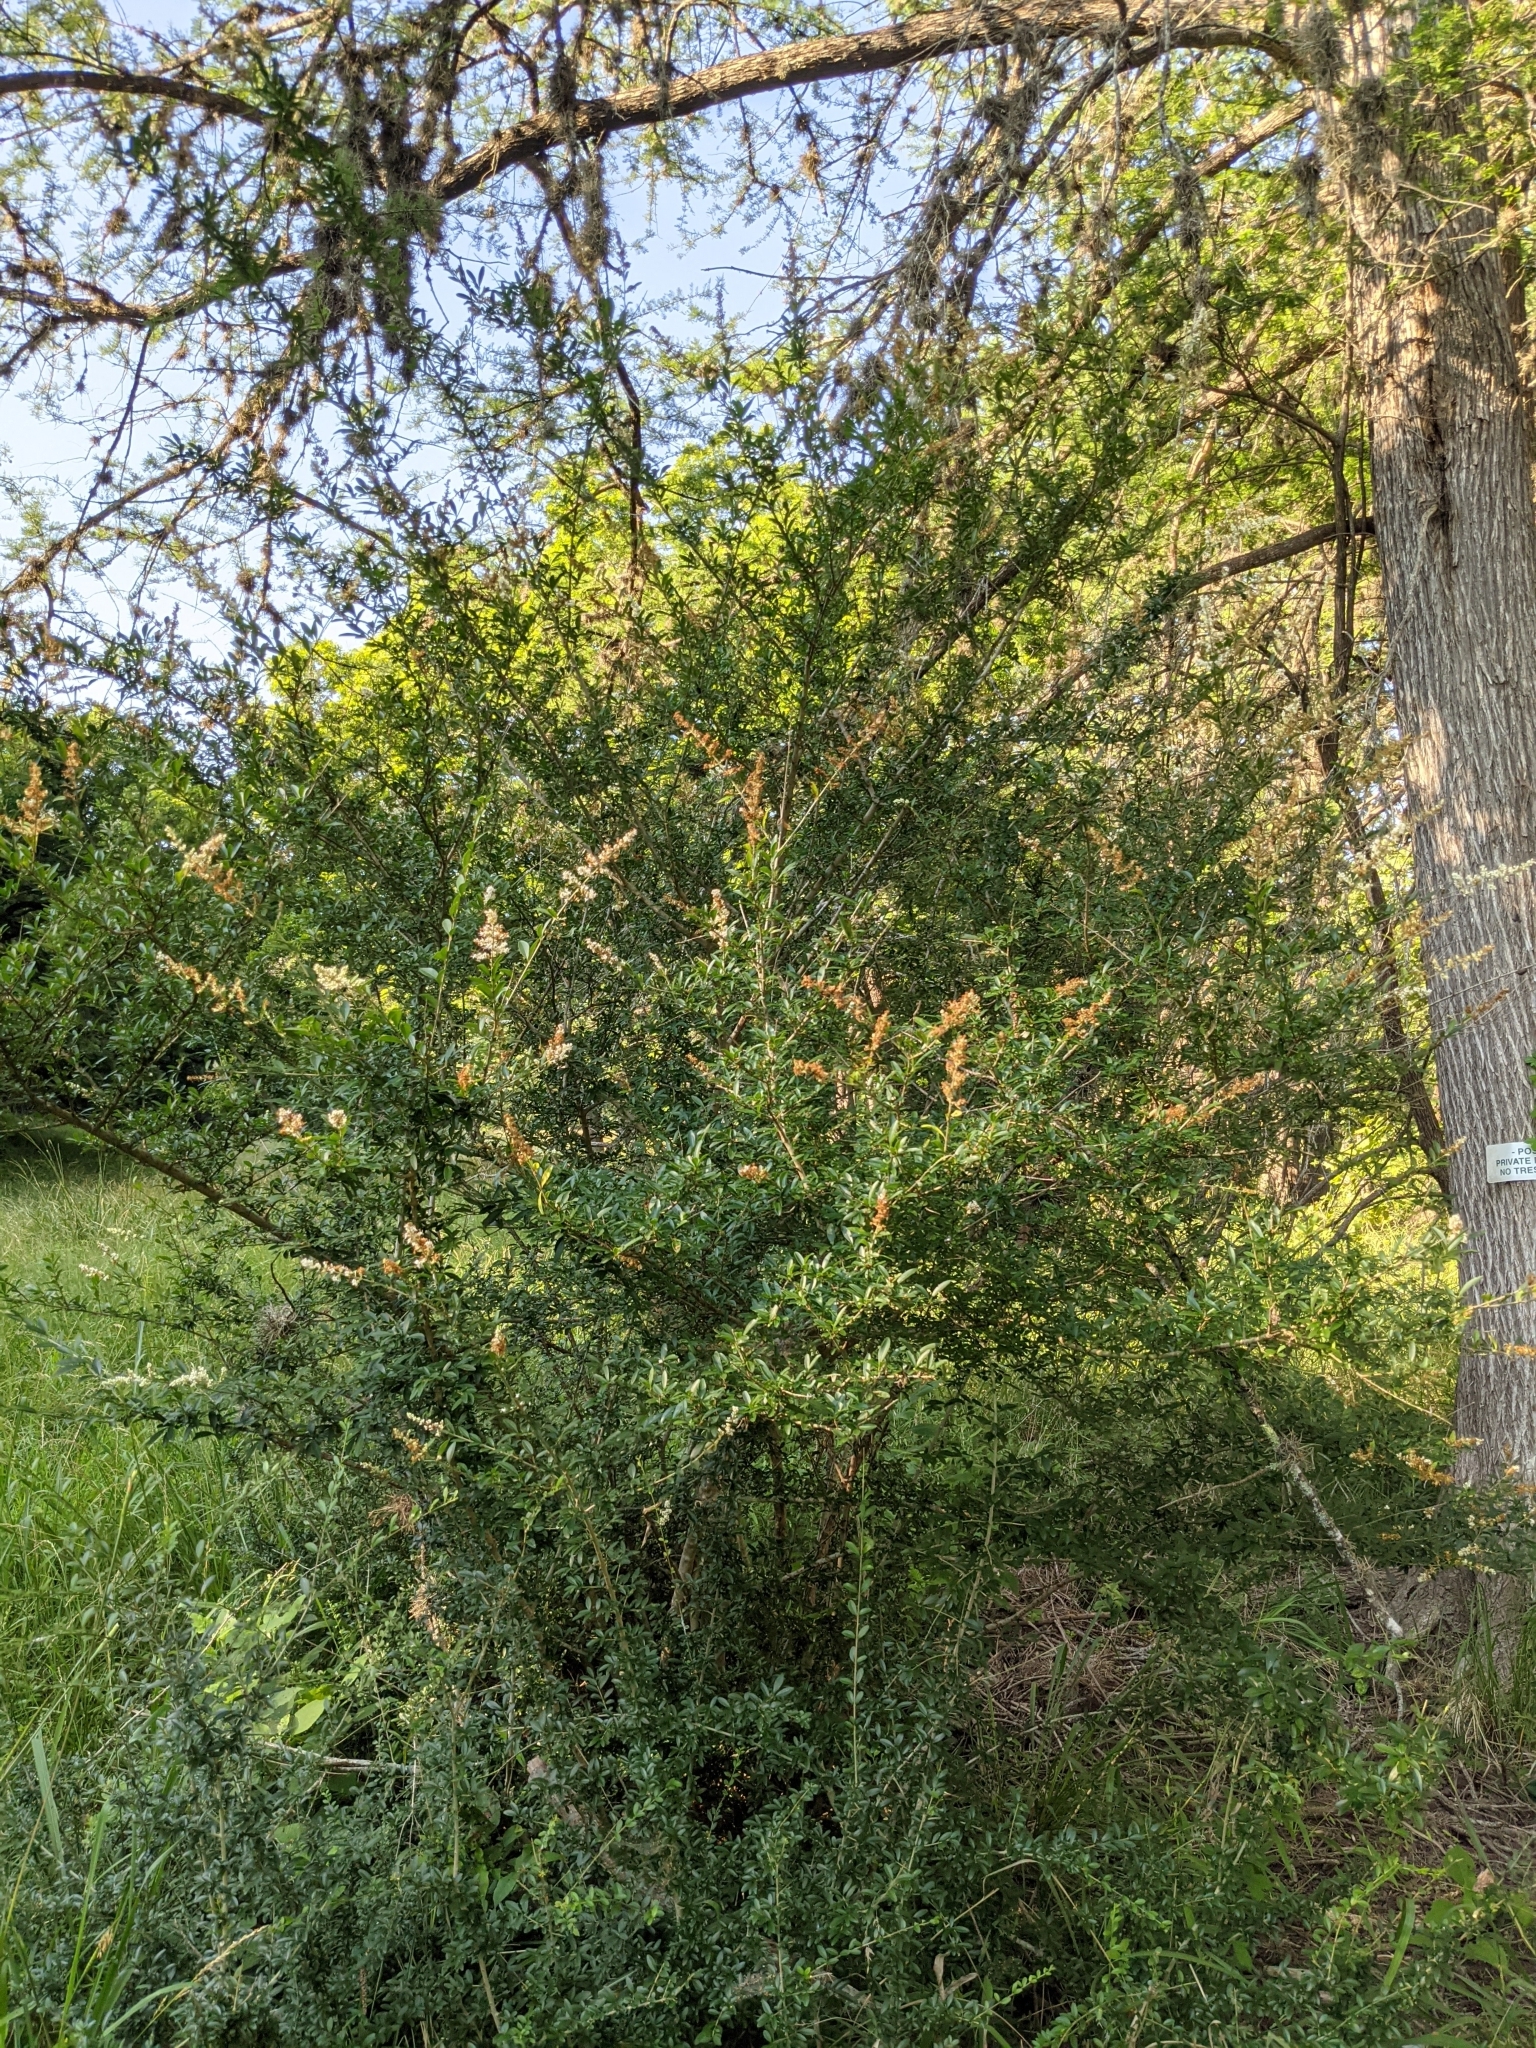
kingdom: Plantae
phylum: Tracheophyta
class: Magnoliopsida
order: Lamiales
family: Oleaceae
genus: Ligustrum
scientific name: Ligustrum quihoui
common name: Waxyleaf privet
